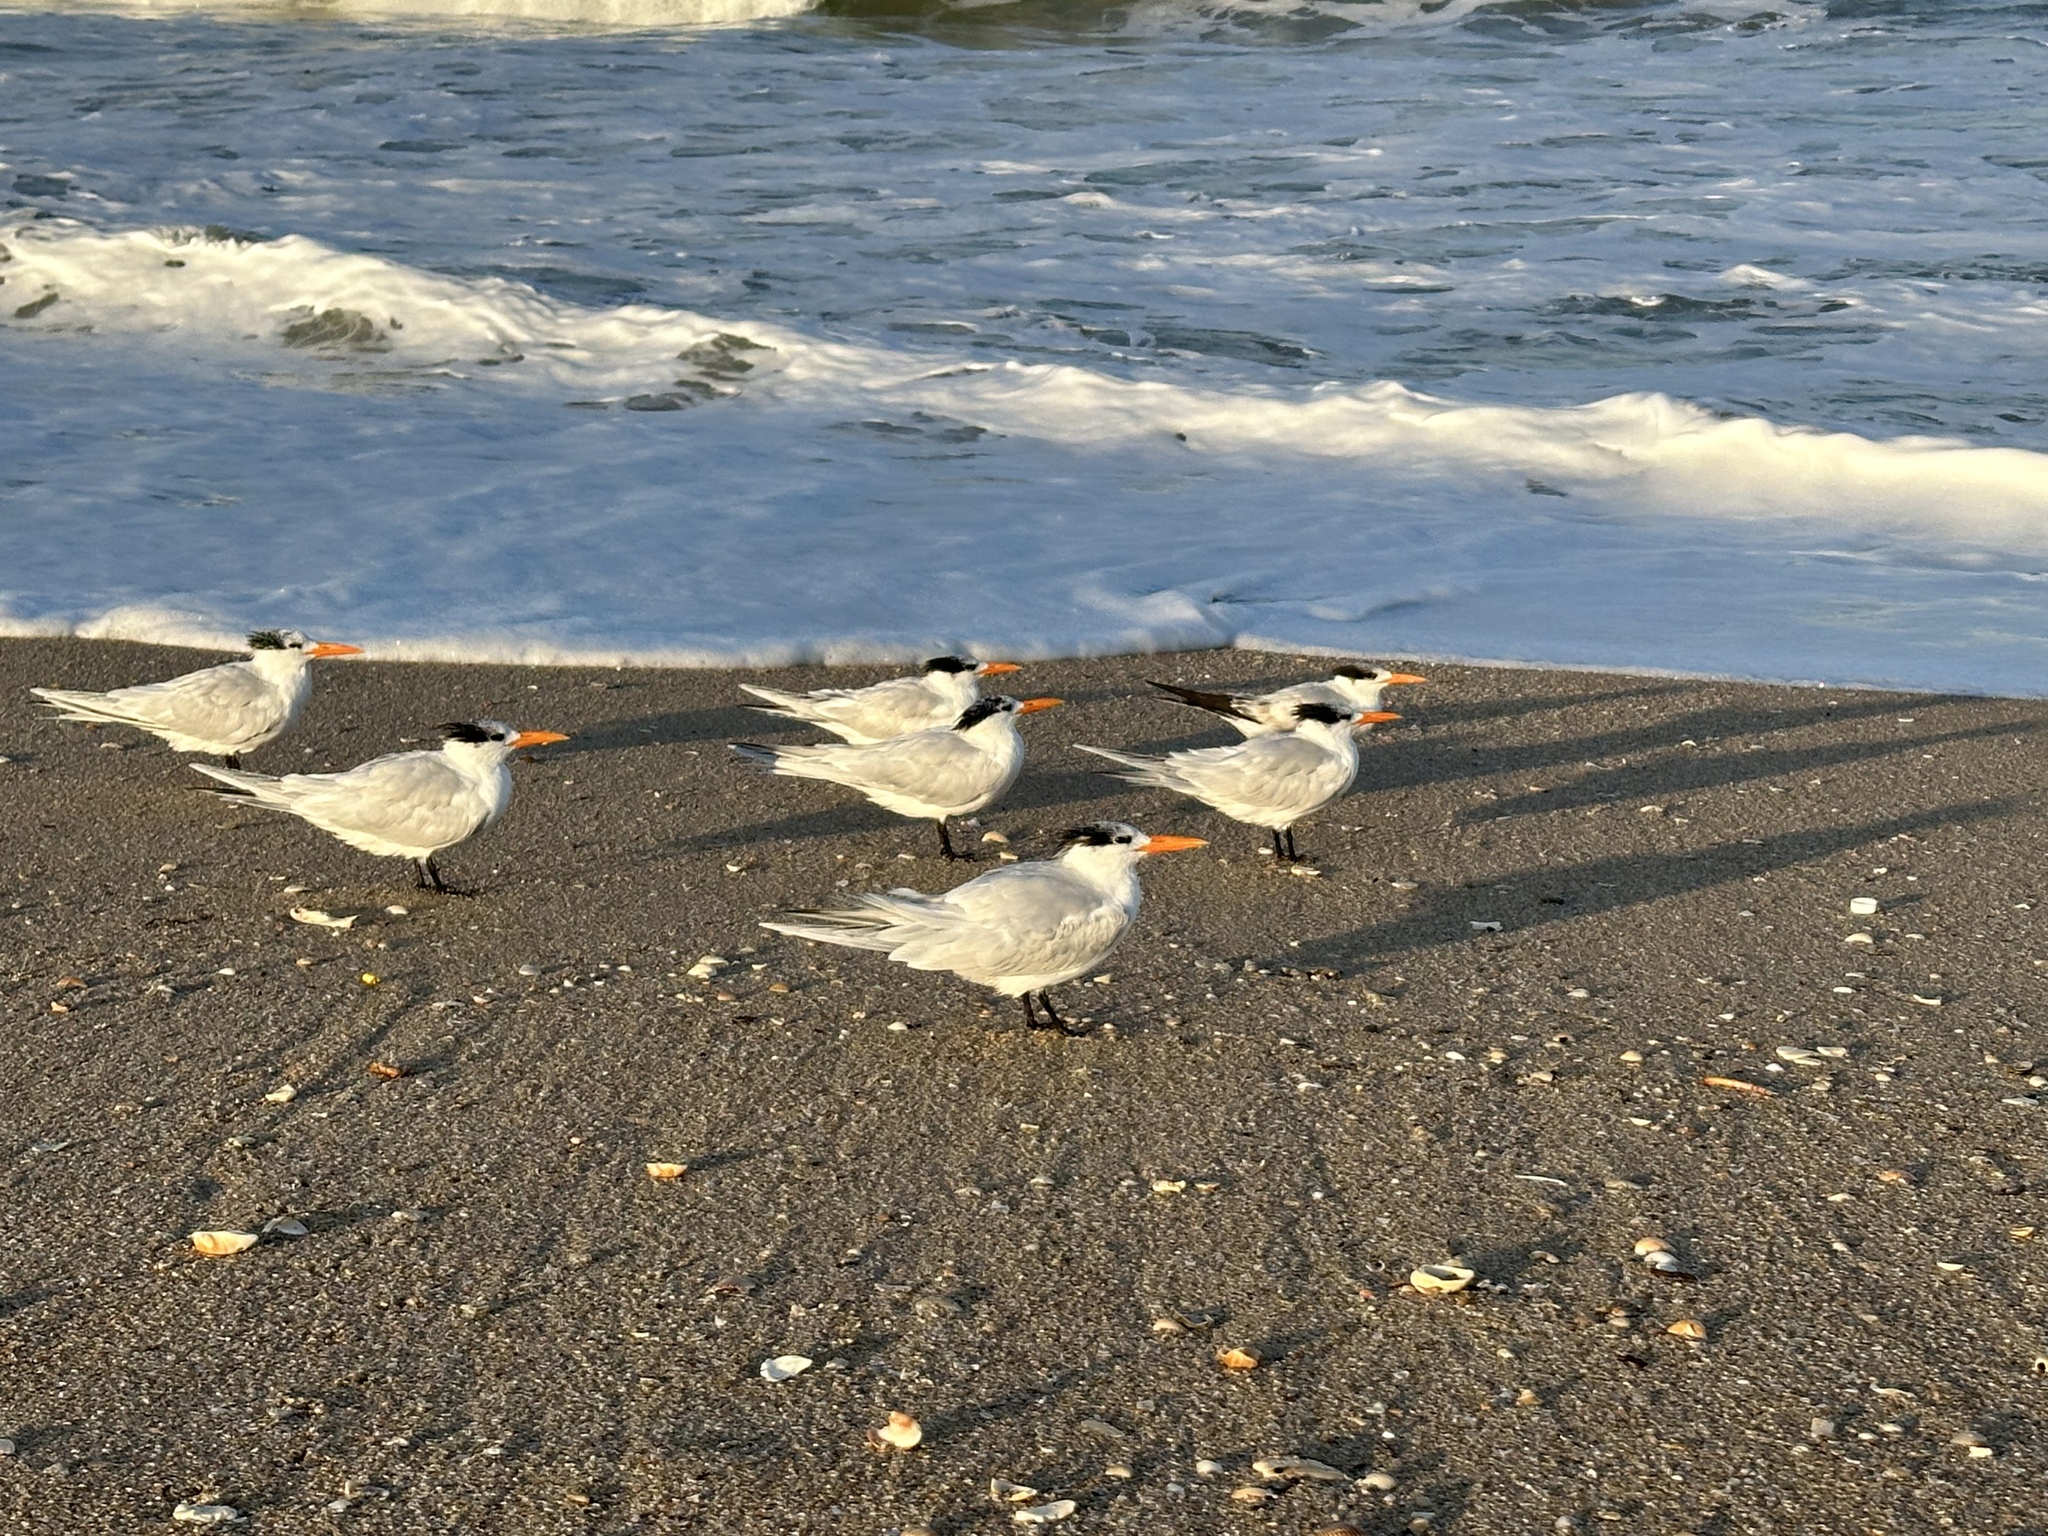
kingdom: Animalia
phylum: Chordata
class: Aves
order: Charadriiformes
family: Laridae
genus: Thalasseus
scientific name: Thalasseus maximus
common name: Royal tern
